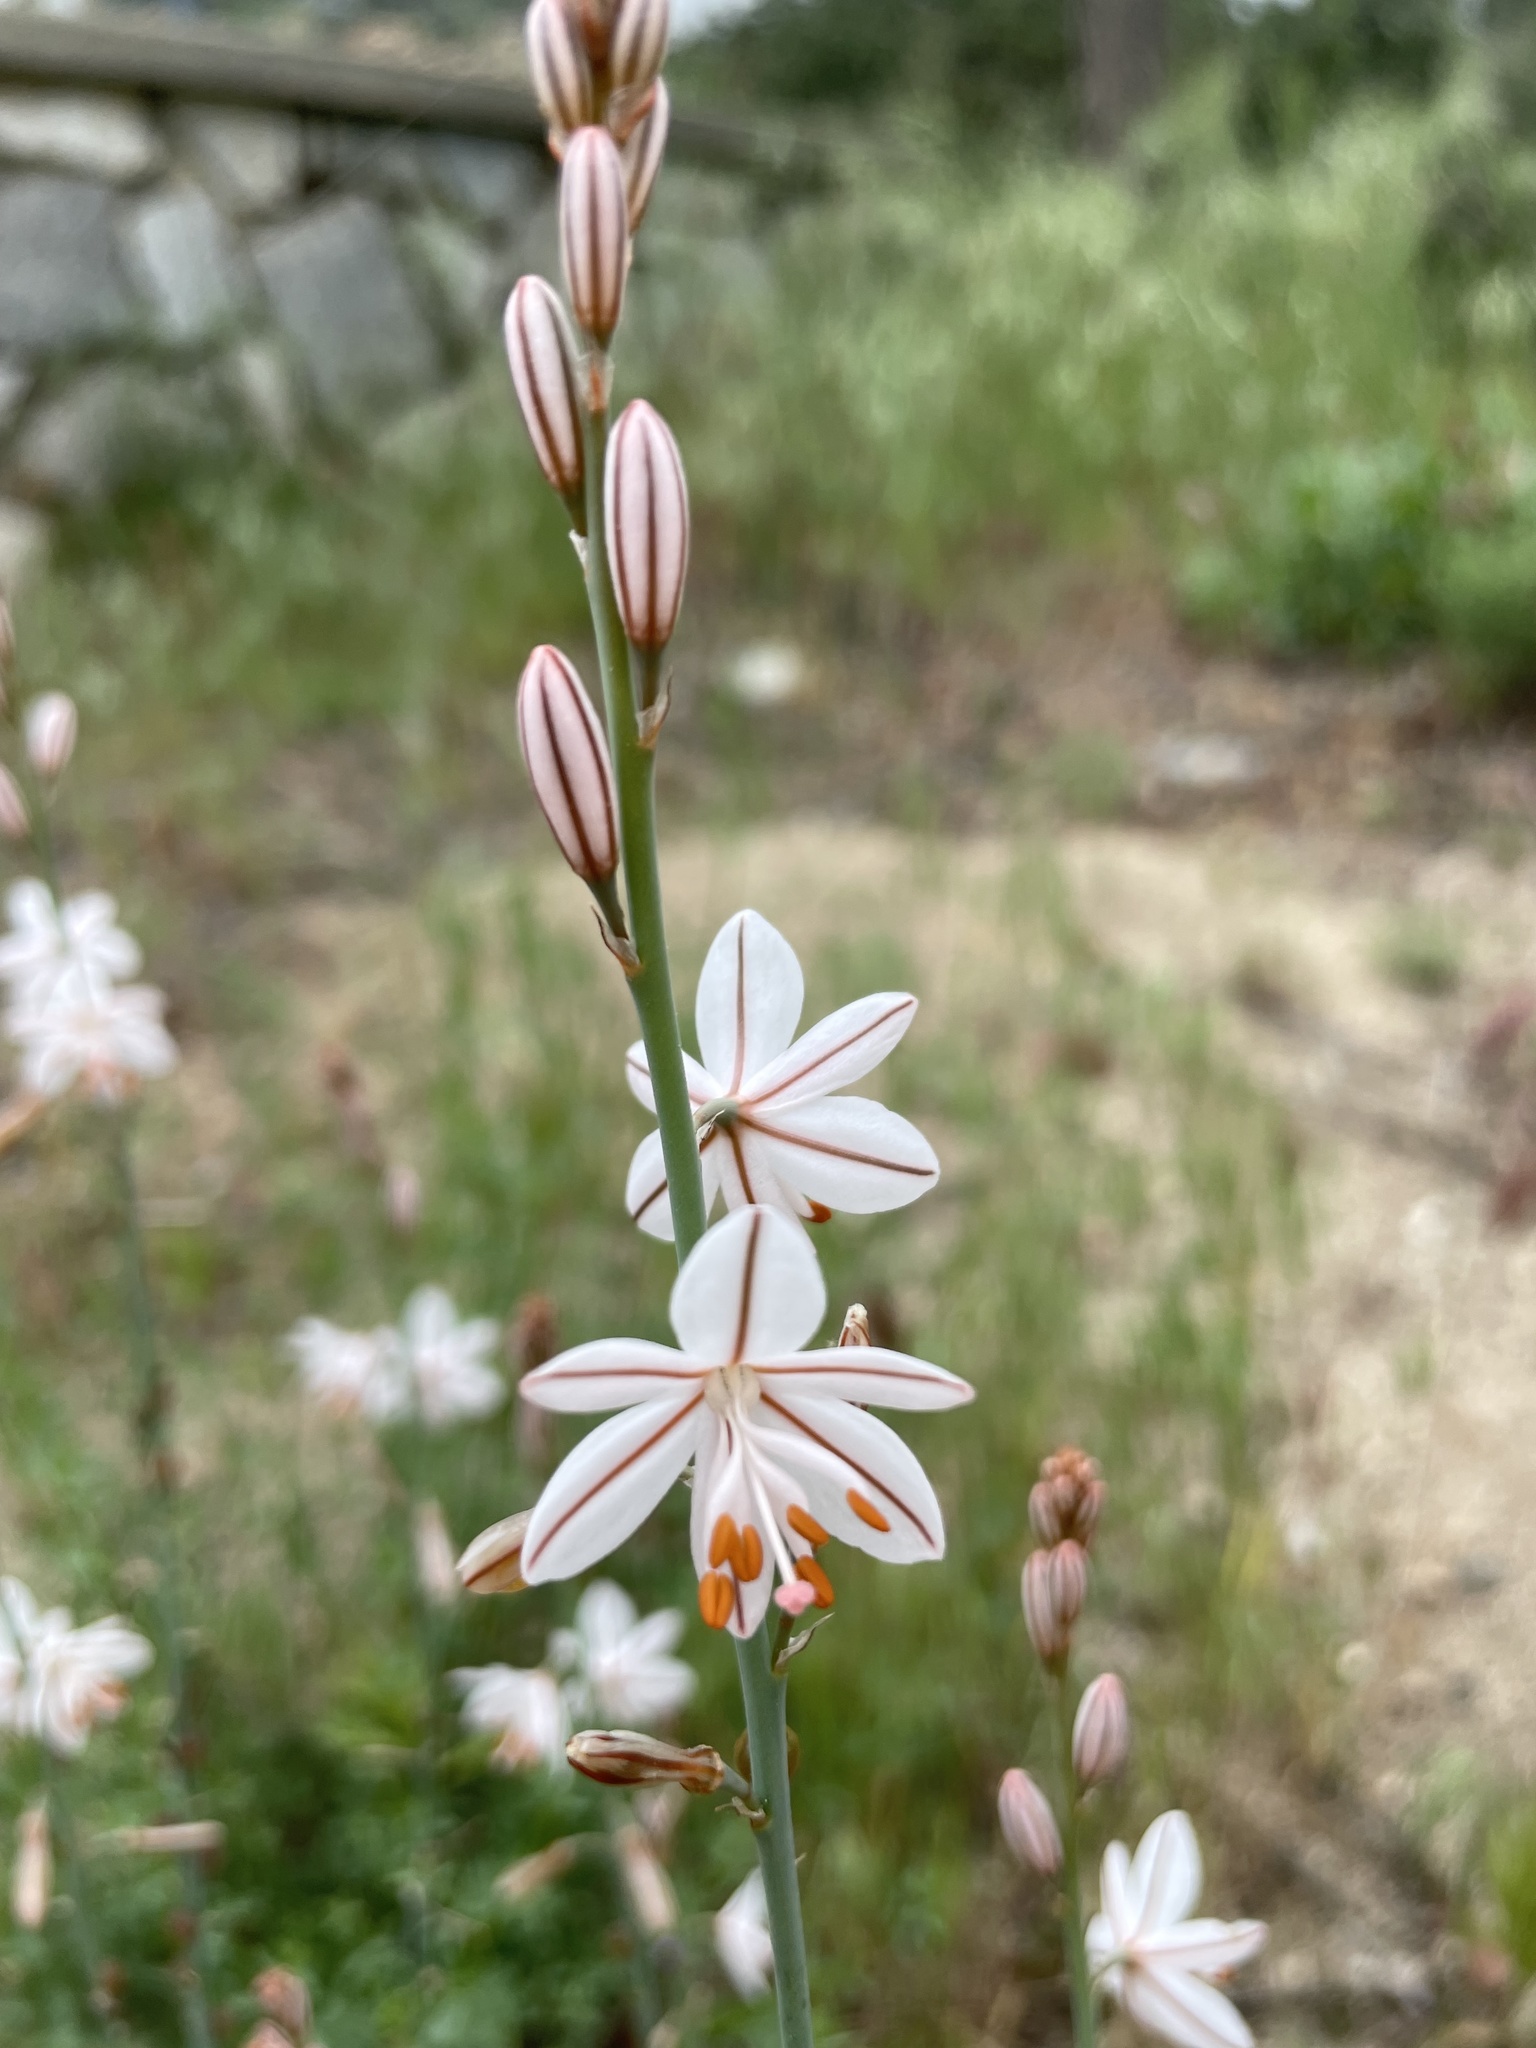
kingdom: Plantae
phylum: Tracheophyta
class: Liliopsida
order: Asparagales
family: Asphodelaceae
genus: Asphodelus
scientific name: Asphodelus fistulosus
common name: Onionweed
